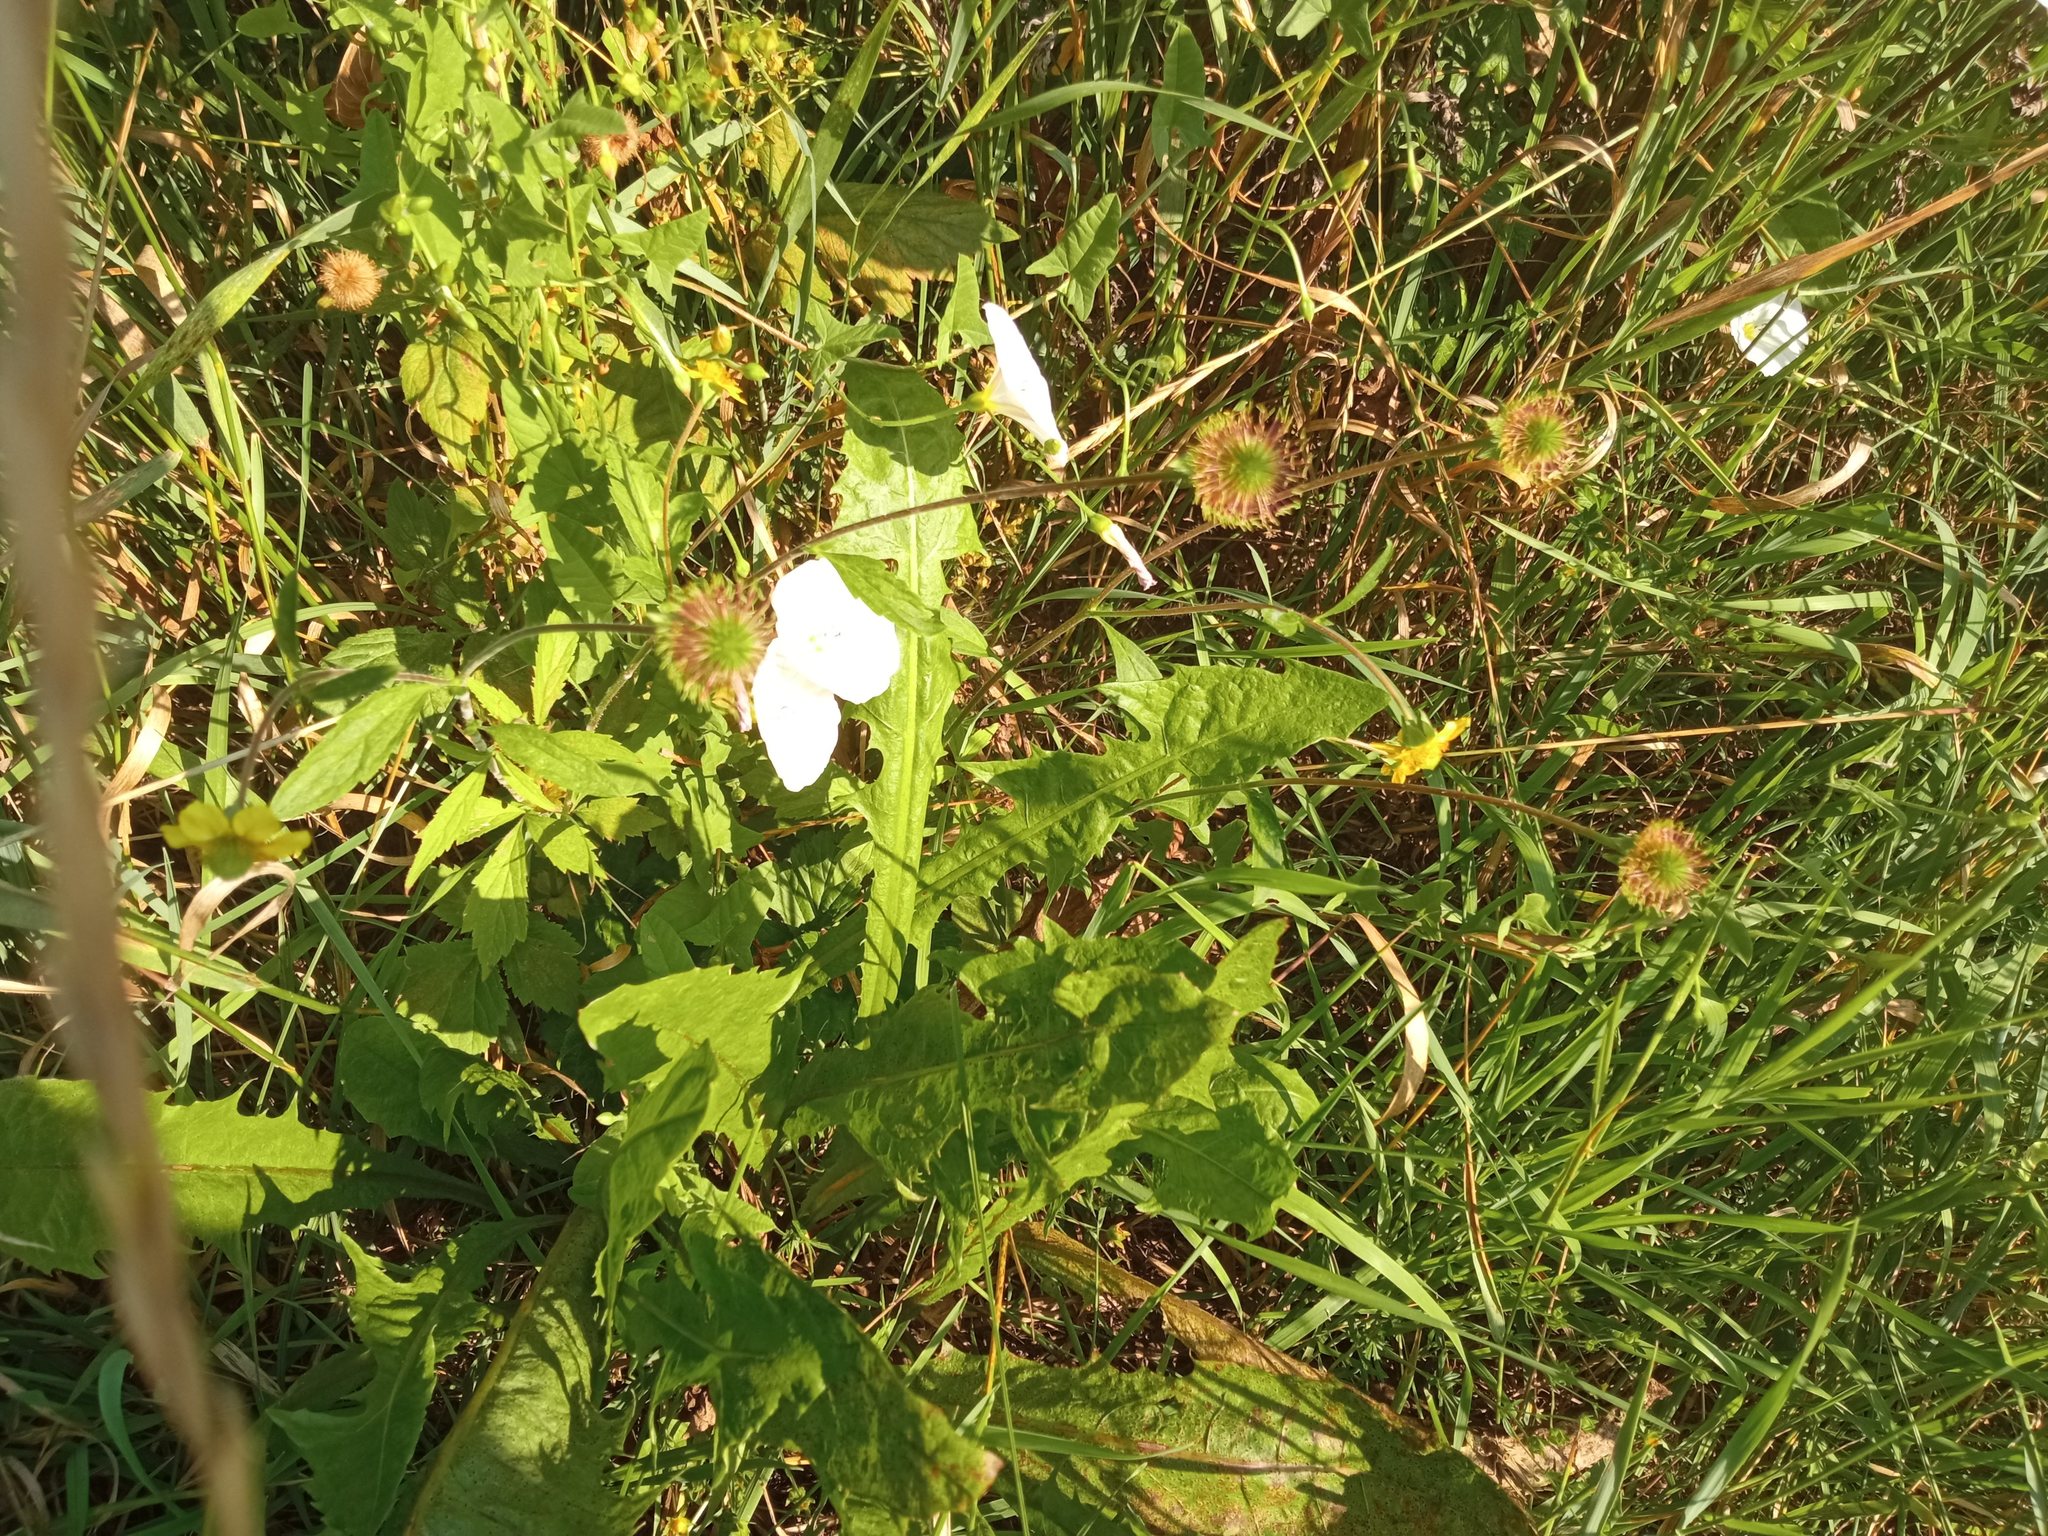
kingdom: Plantae
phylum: Tracheophyta
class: Magnoliopsida
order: Rosales
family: Rosaceae
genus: Geum
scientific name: Geum aleppicum
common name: Yellow avens
